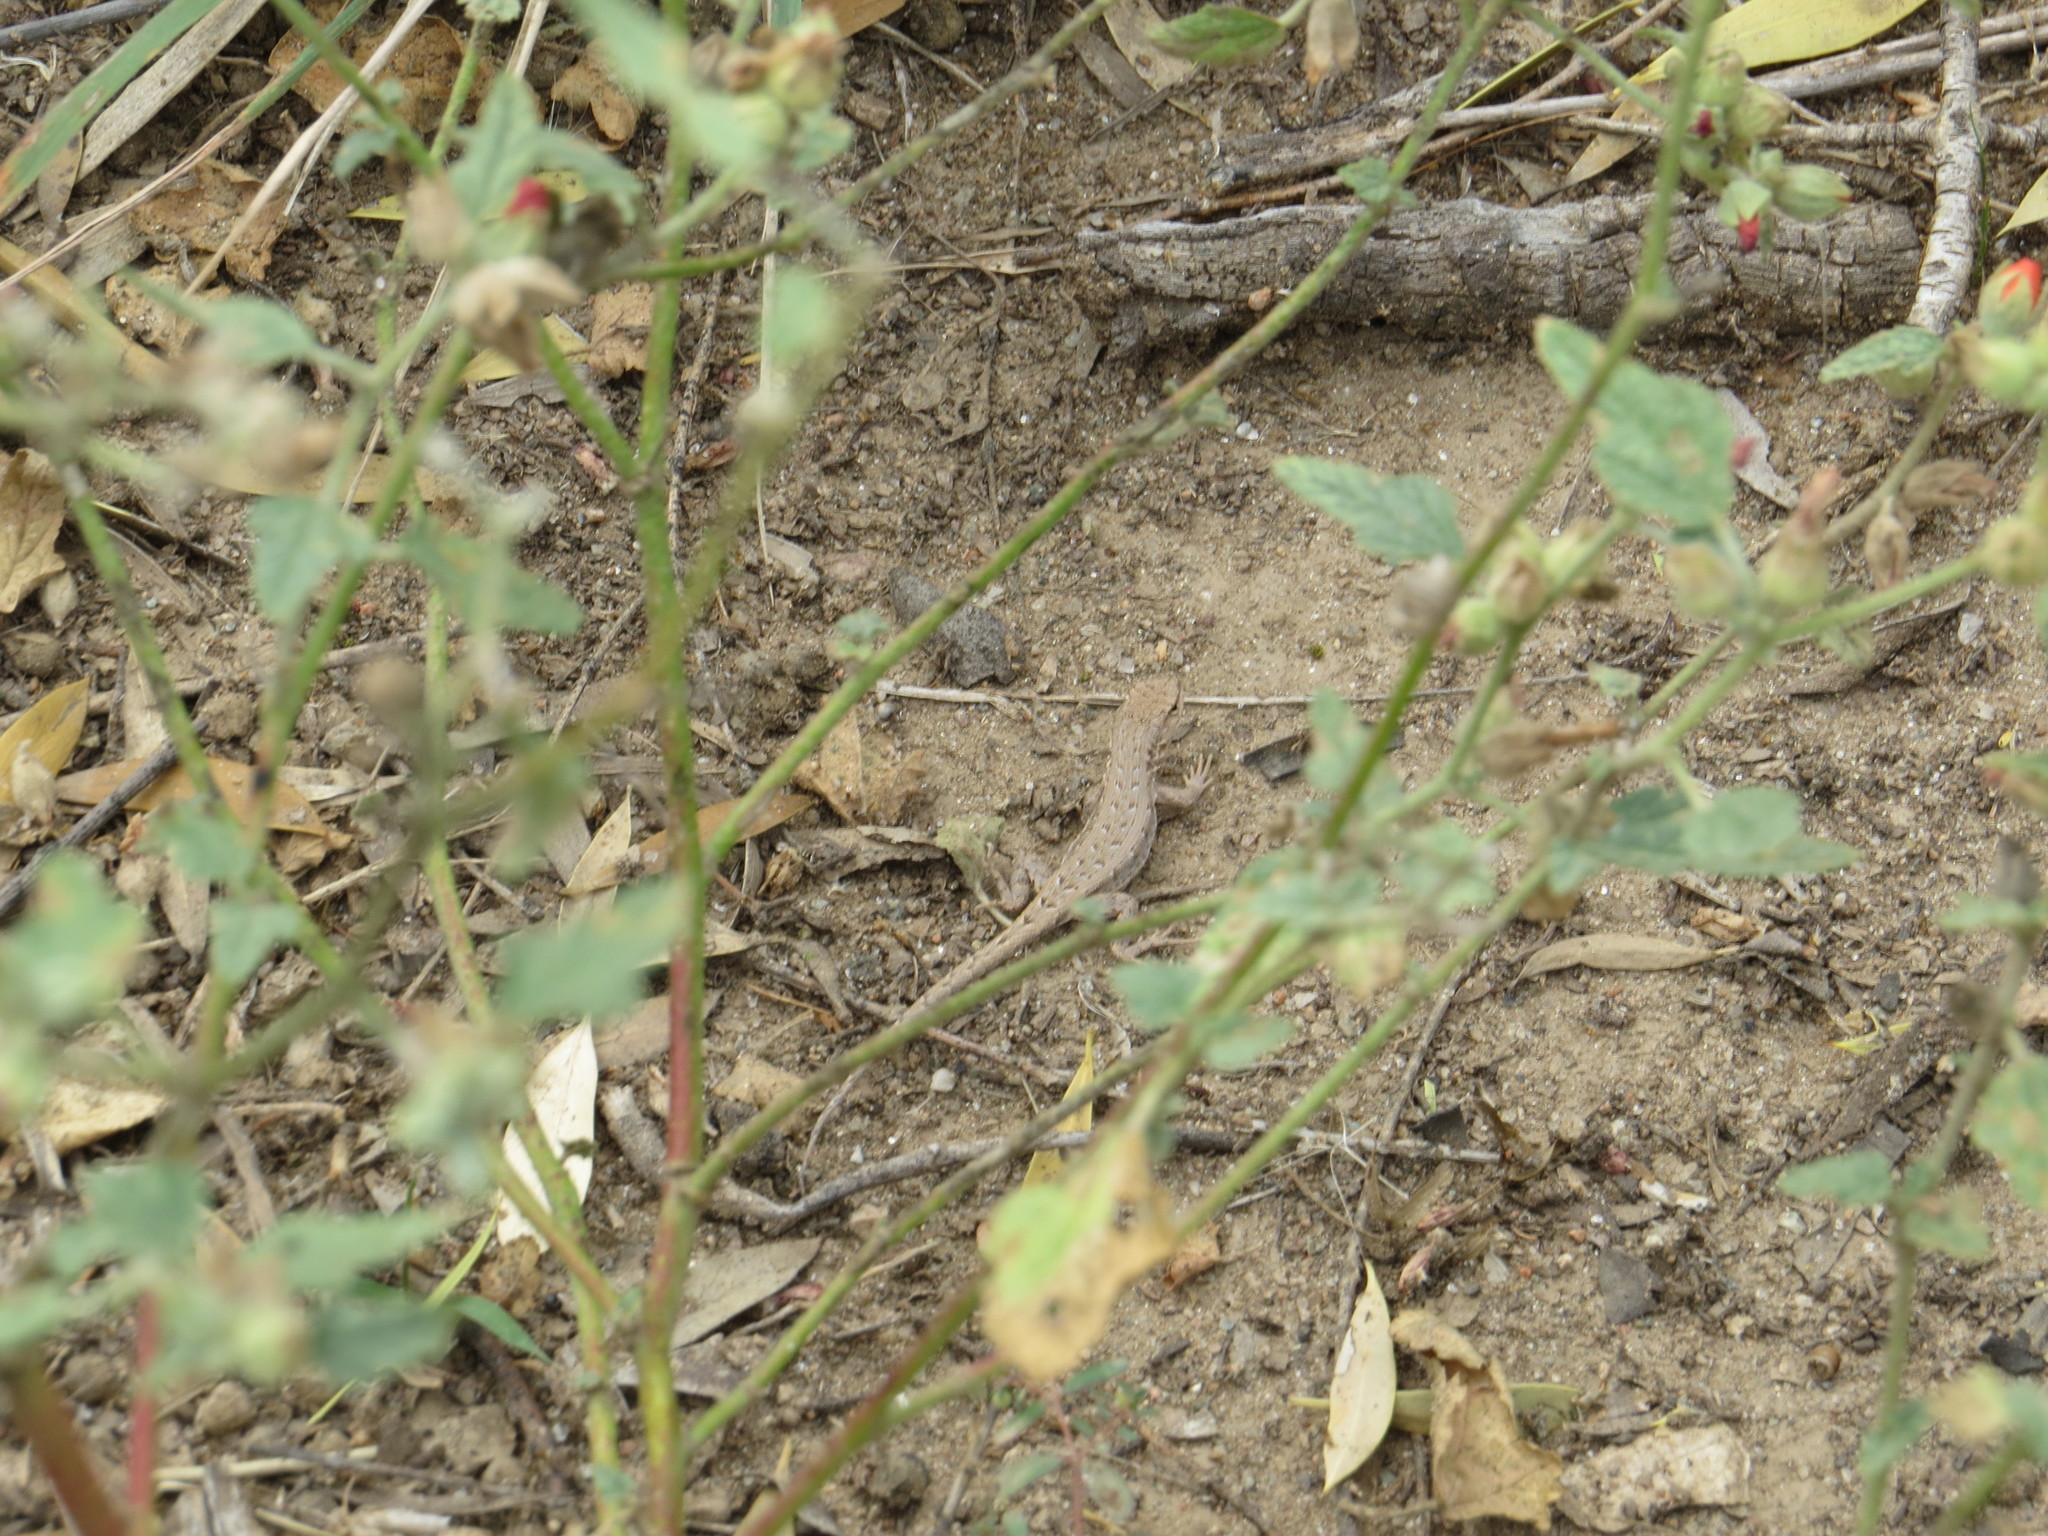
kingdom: Plantae
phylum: Tracheophyta
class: Magnoliopsida
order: Malvales
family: Malvaceae
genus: Sphaeralcea
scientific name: Sphaeralcea cordobensis
